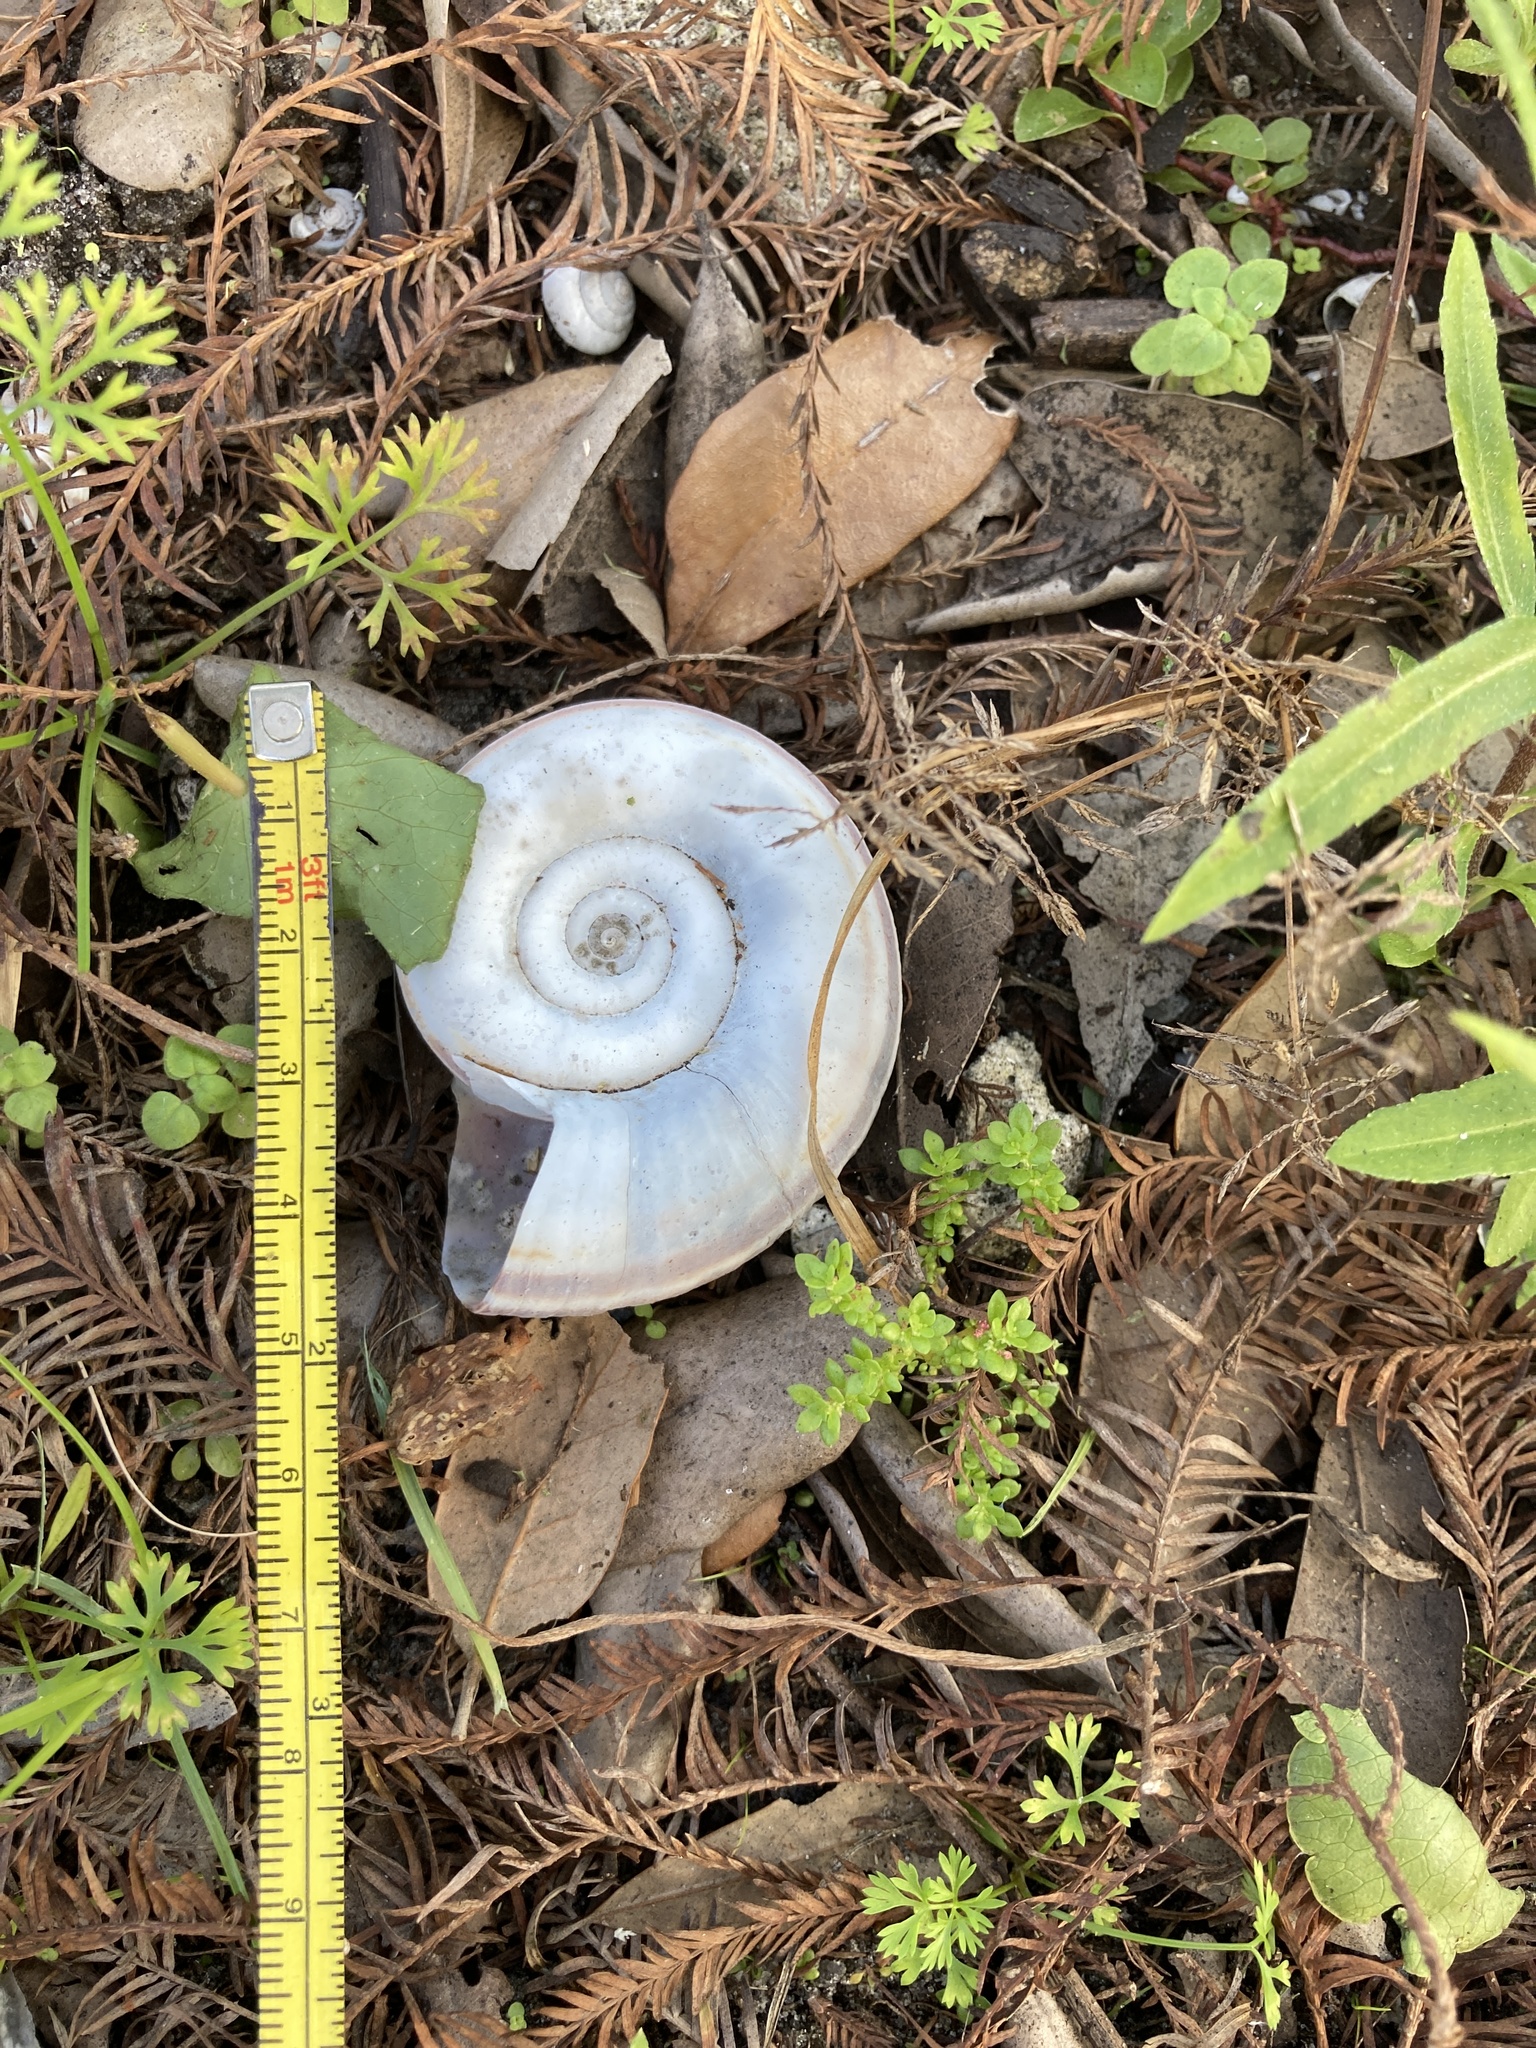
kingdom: Animalia
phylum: Mollusca
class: Gastropoda
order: Architaenioglossa
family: Ampullariidae
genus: Marisa
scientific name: Marisa cornuarietis
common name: Giant ramshorn snail
